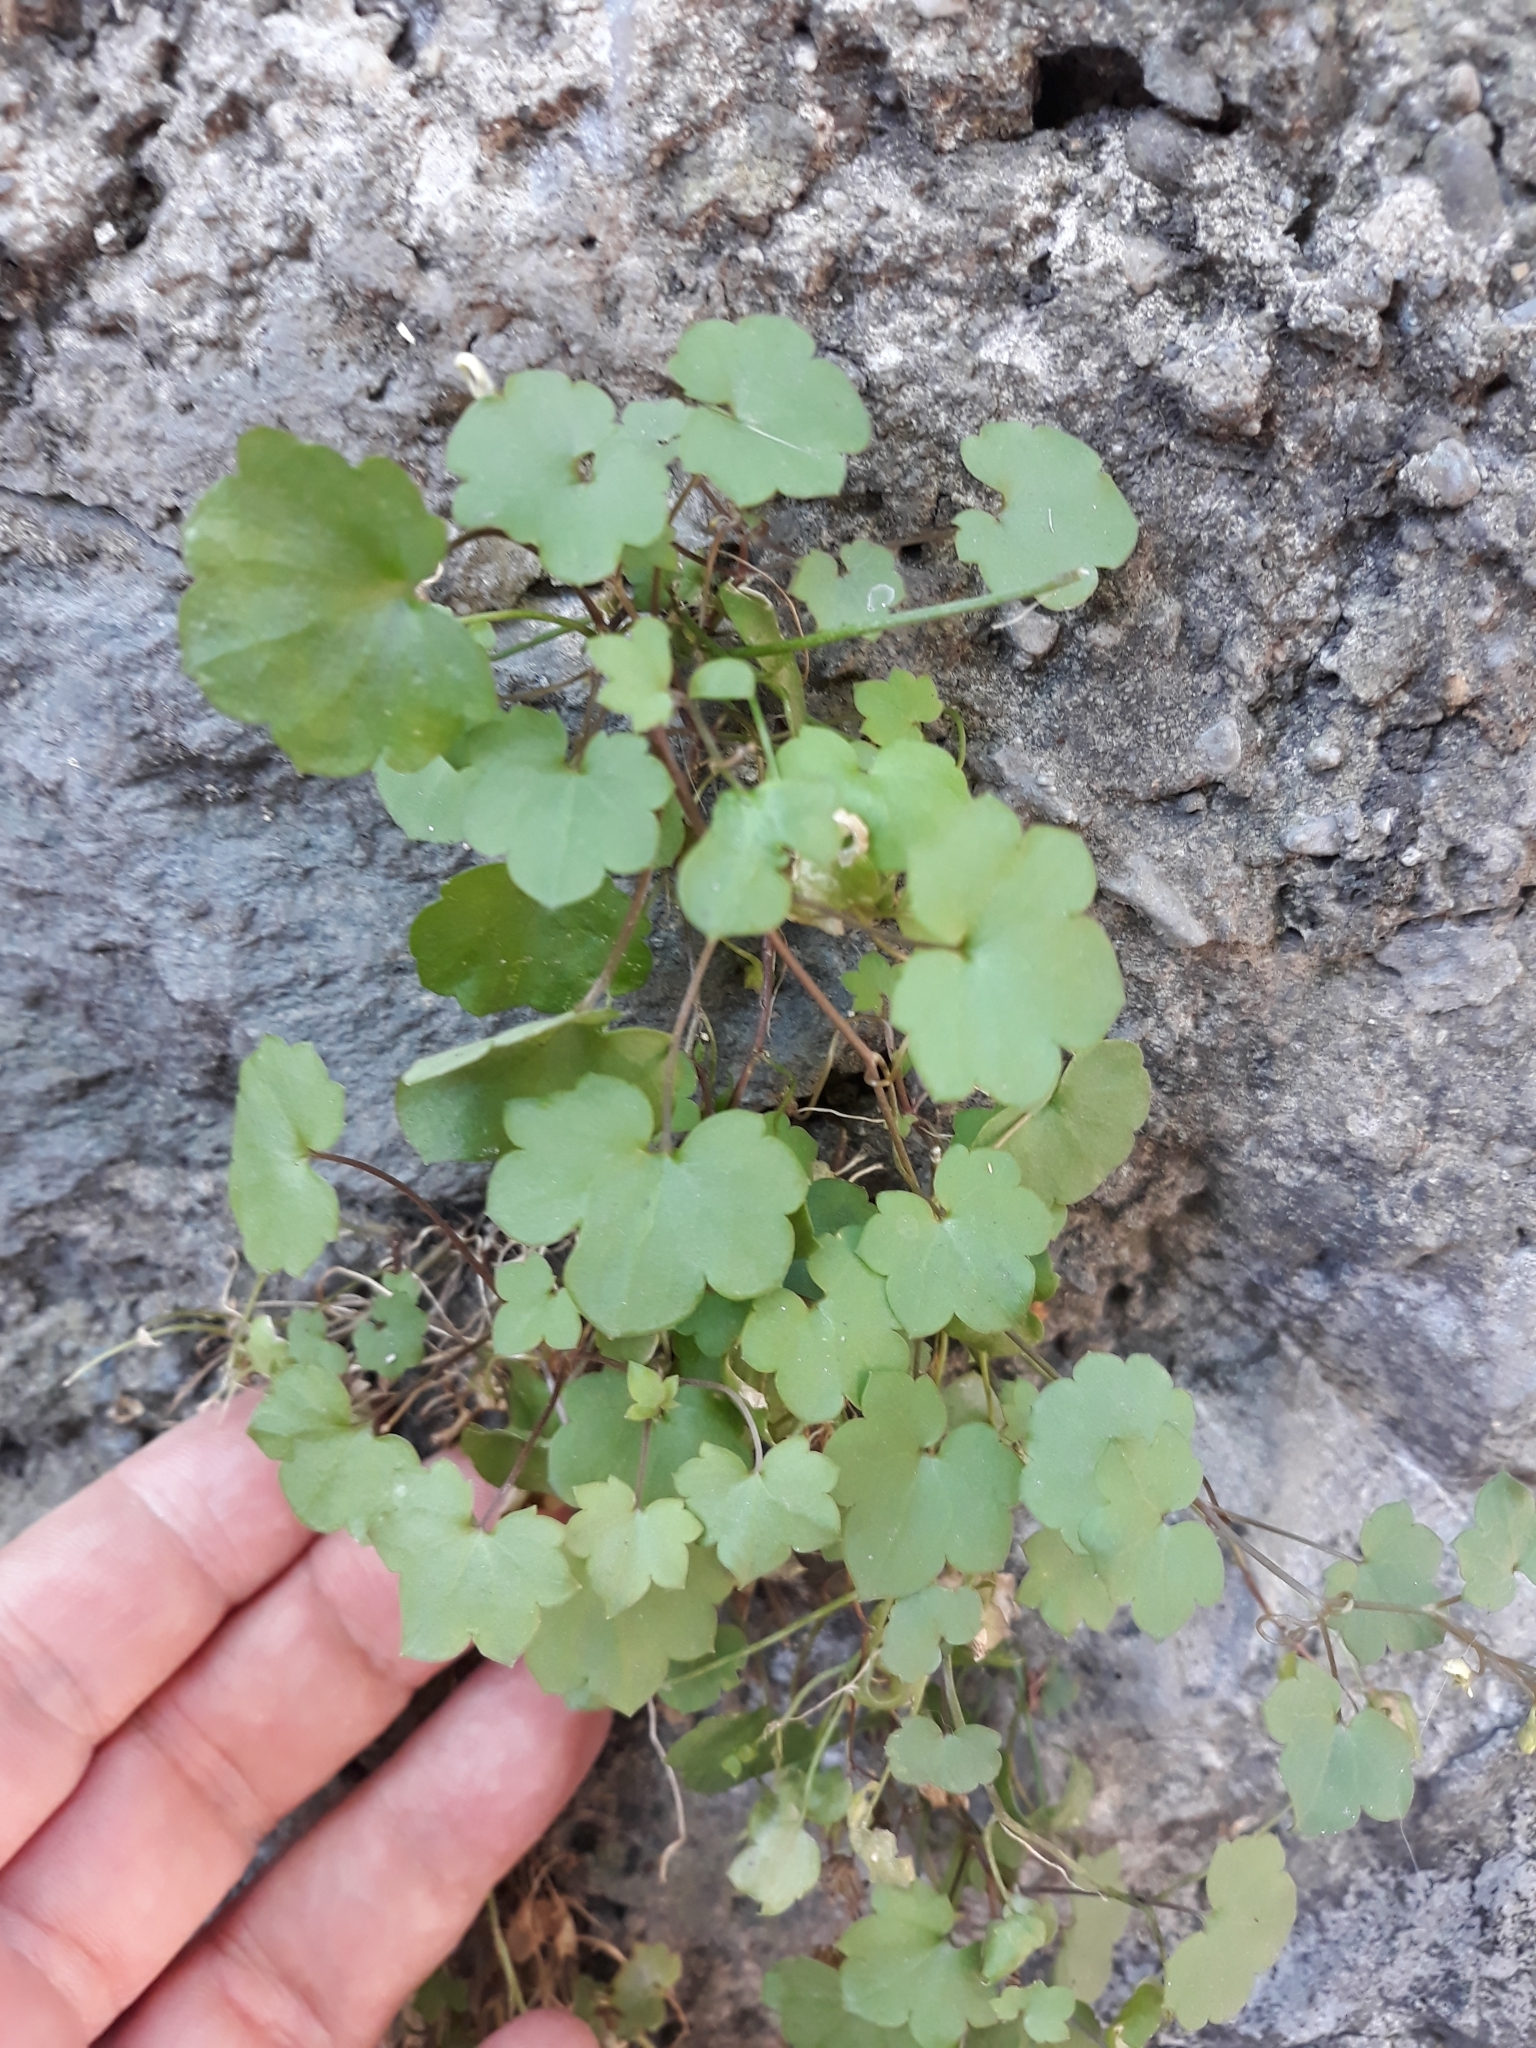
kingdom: Plantae
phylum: Tracheophyta
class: Magnoliopsida
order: Lamiales
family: Plantaginaceae
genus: Cymbalaria
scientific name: Cymbalaria muralis
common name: Ivy-leaved toadflax
